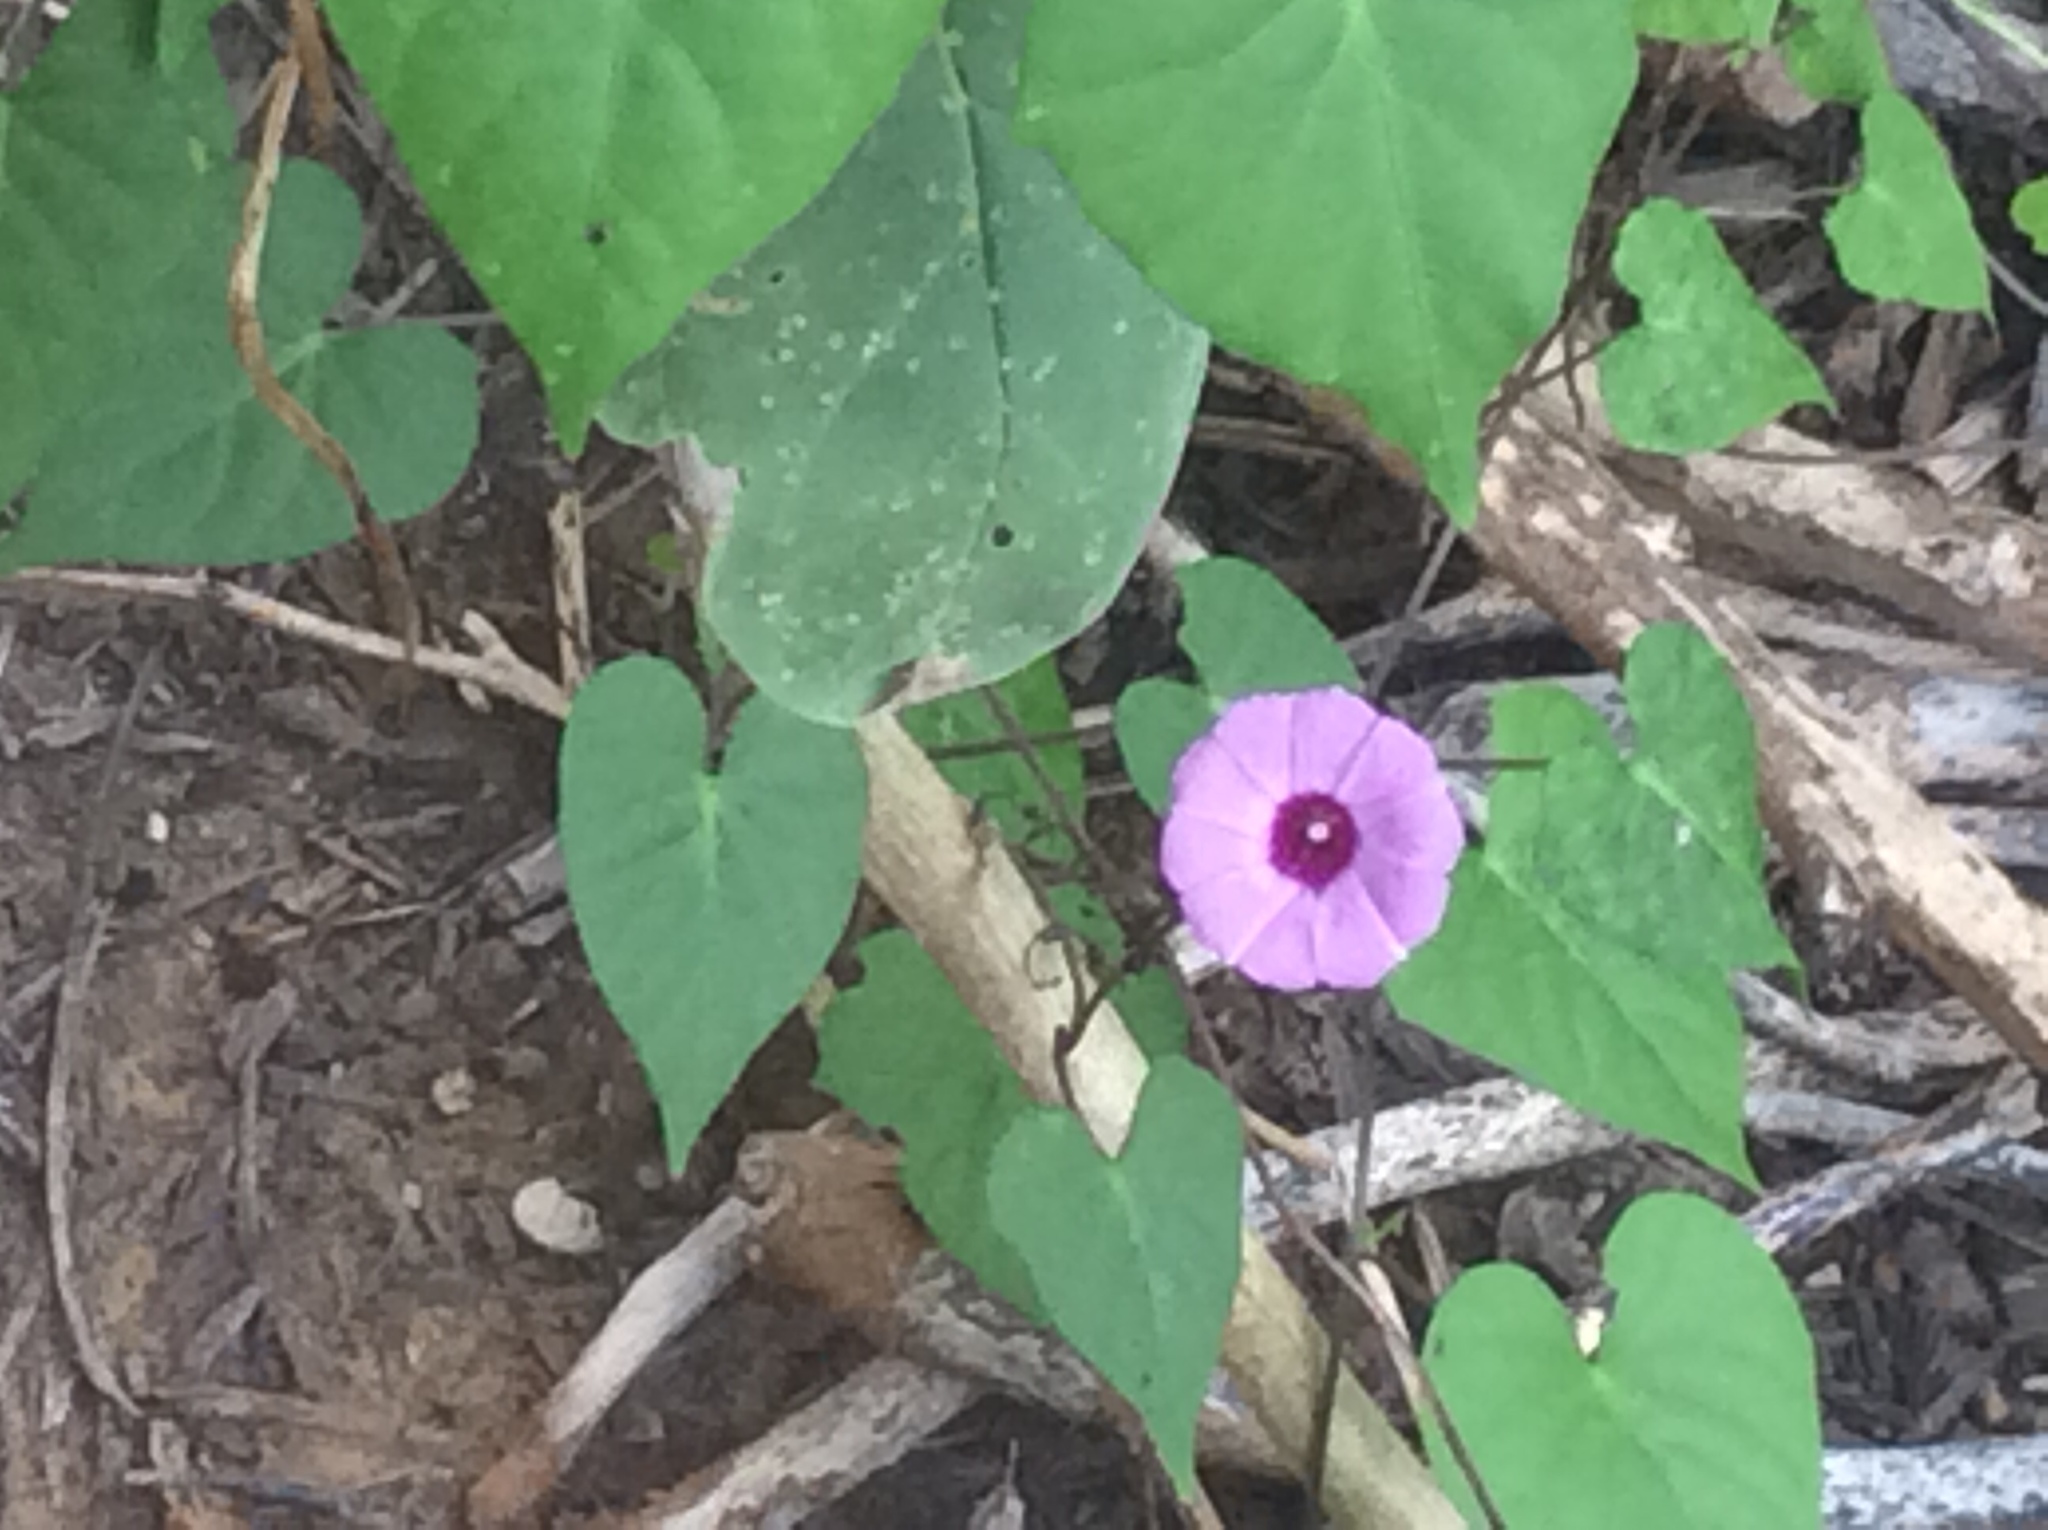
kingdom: Plantae
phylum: Tracheophyta
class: Magnoliopsida
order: Solanales
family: Convolvulaceae
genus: Ipomoea
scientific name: Ipomoea cordatotriloba
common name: Cotton morning glory
